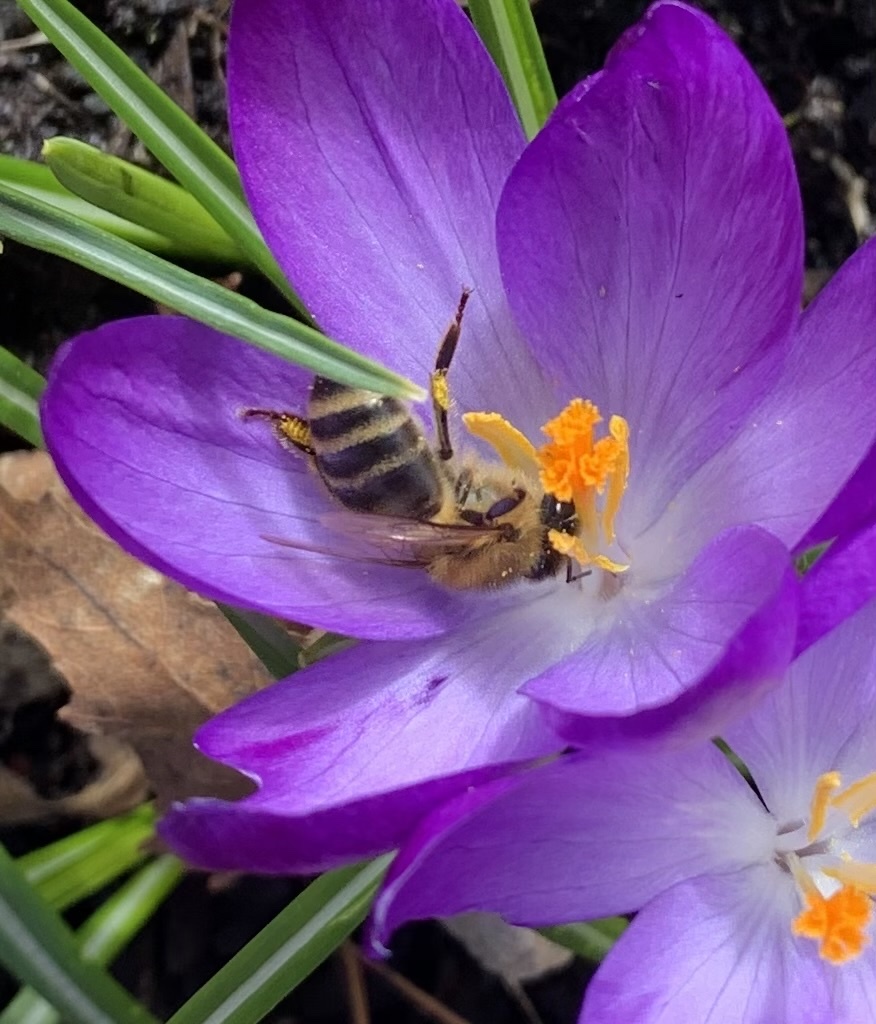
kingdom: Animalia
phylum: Arthropoda
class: Insecta
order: Hymenoptera
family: Apidae
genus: Apis
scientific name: Apis mellifera
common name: Honey bee
